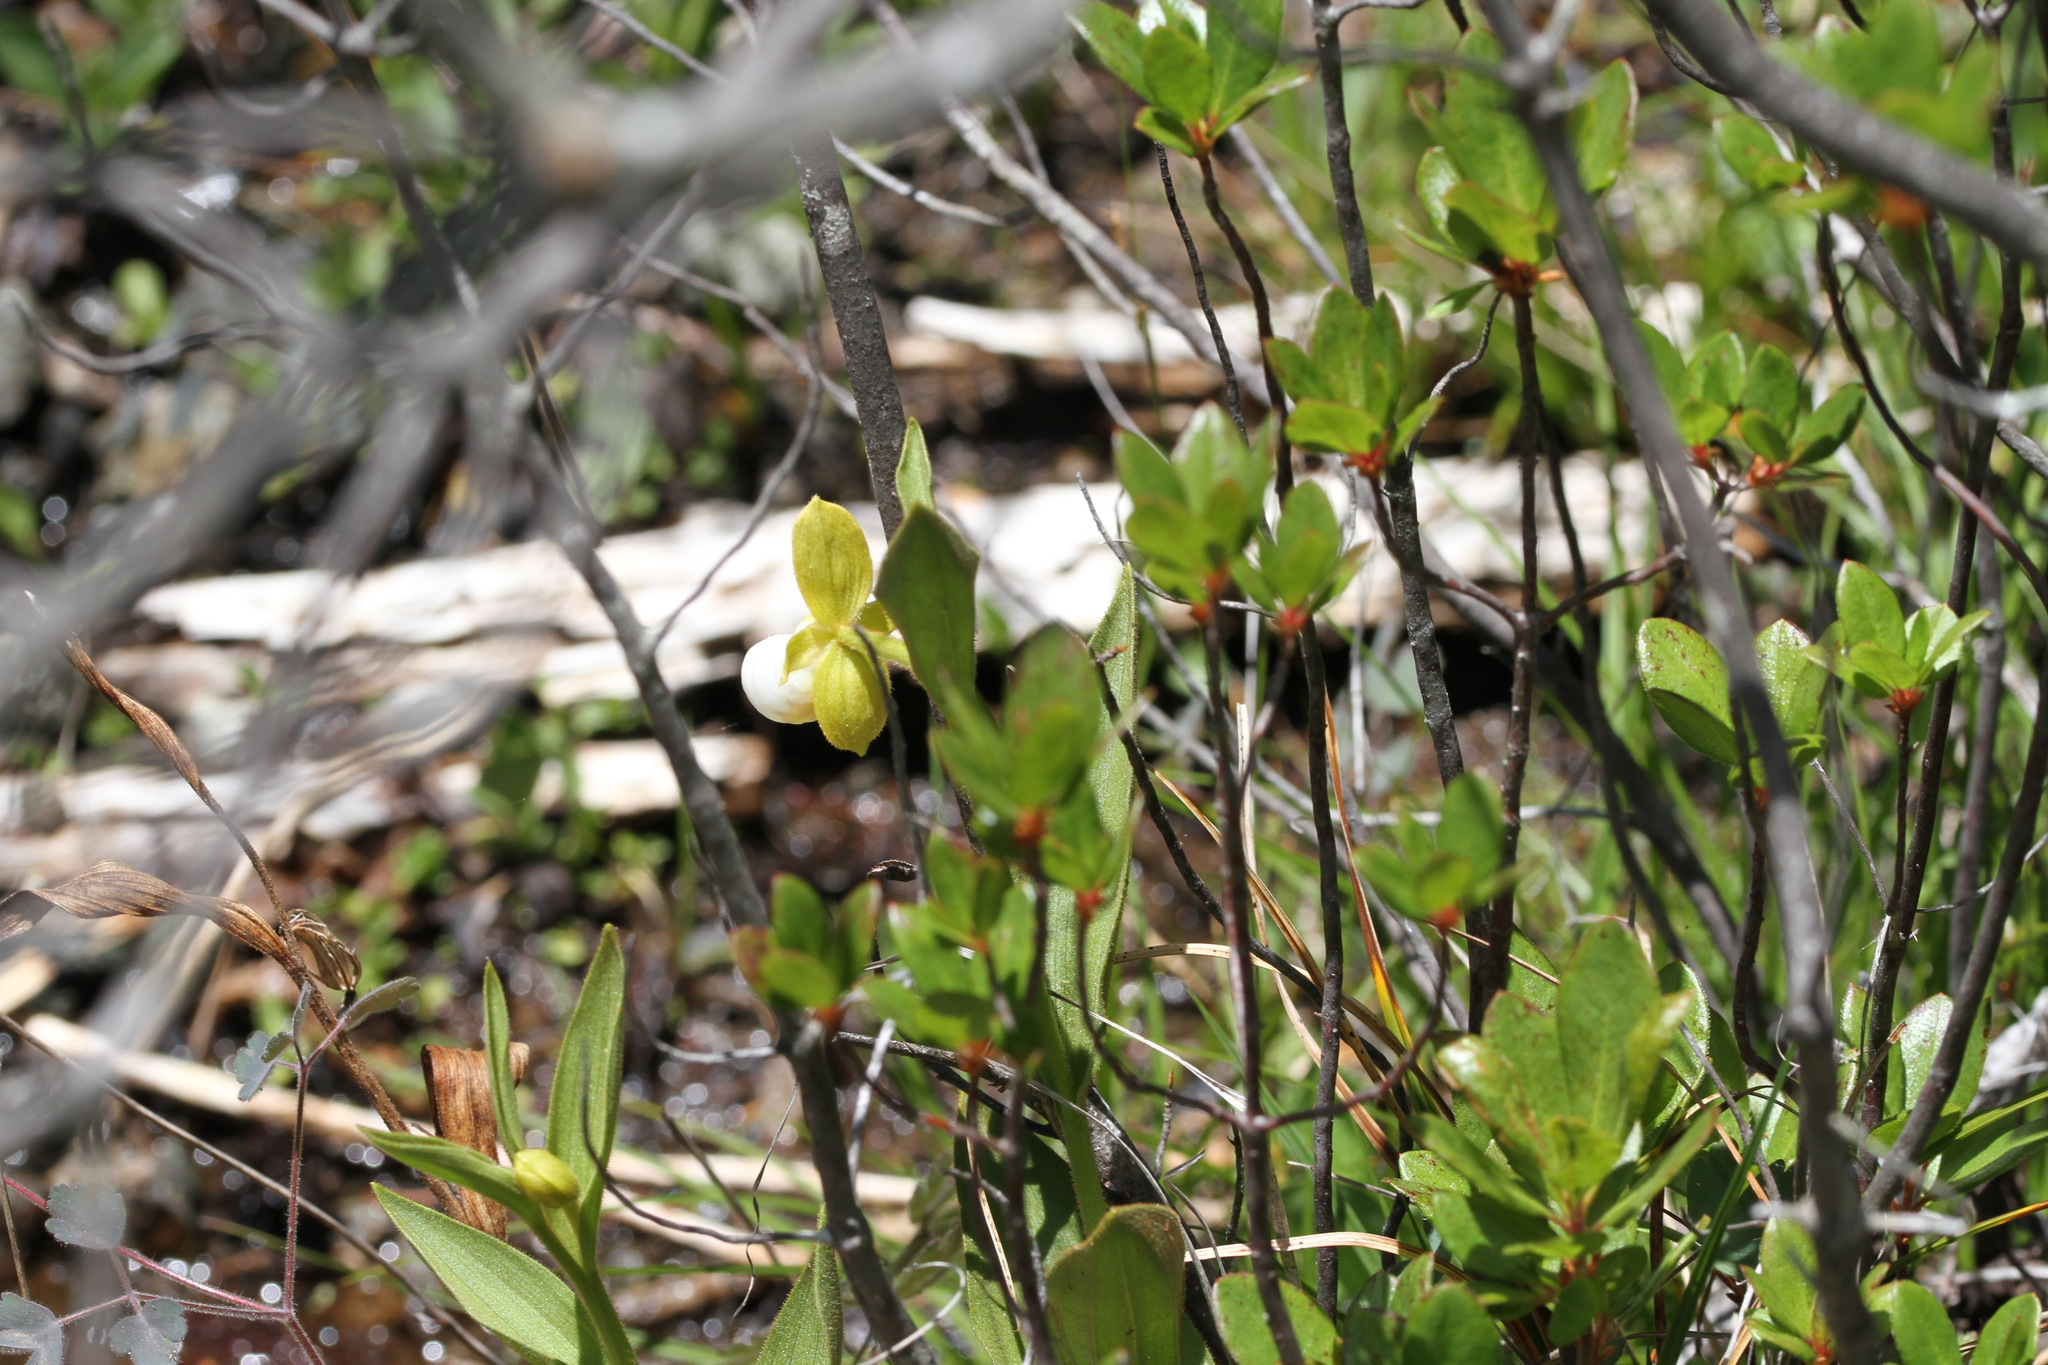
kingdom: Plantae
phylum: Tracheophyta
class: Liliopsida
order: Asparagales
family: Orchidaceae
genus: Cypripedium
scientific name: Cypripedium californicum
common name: California lady's slipper
